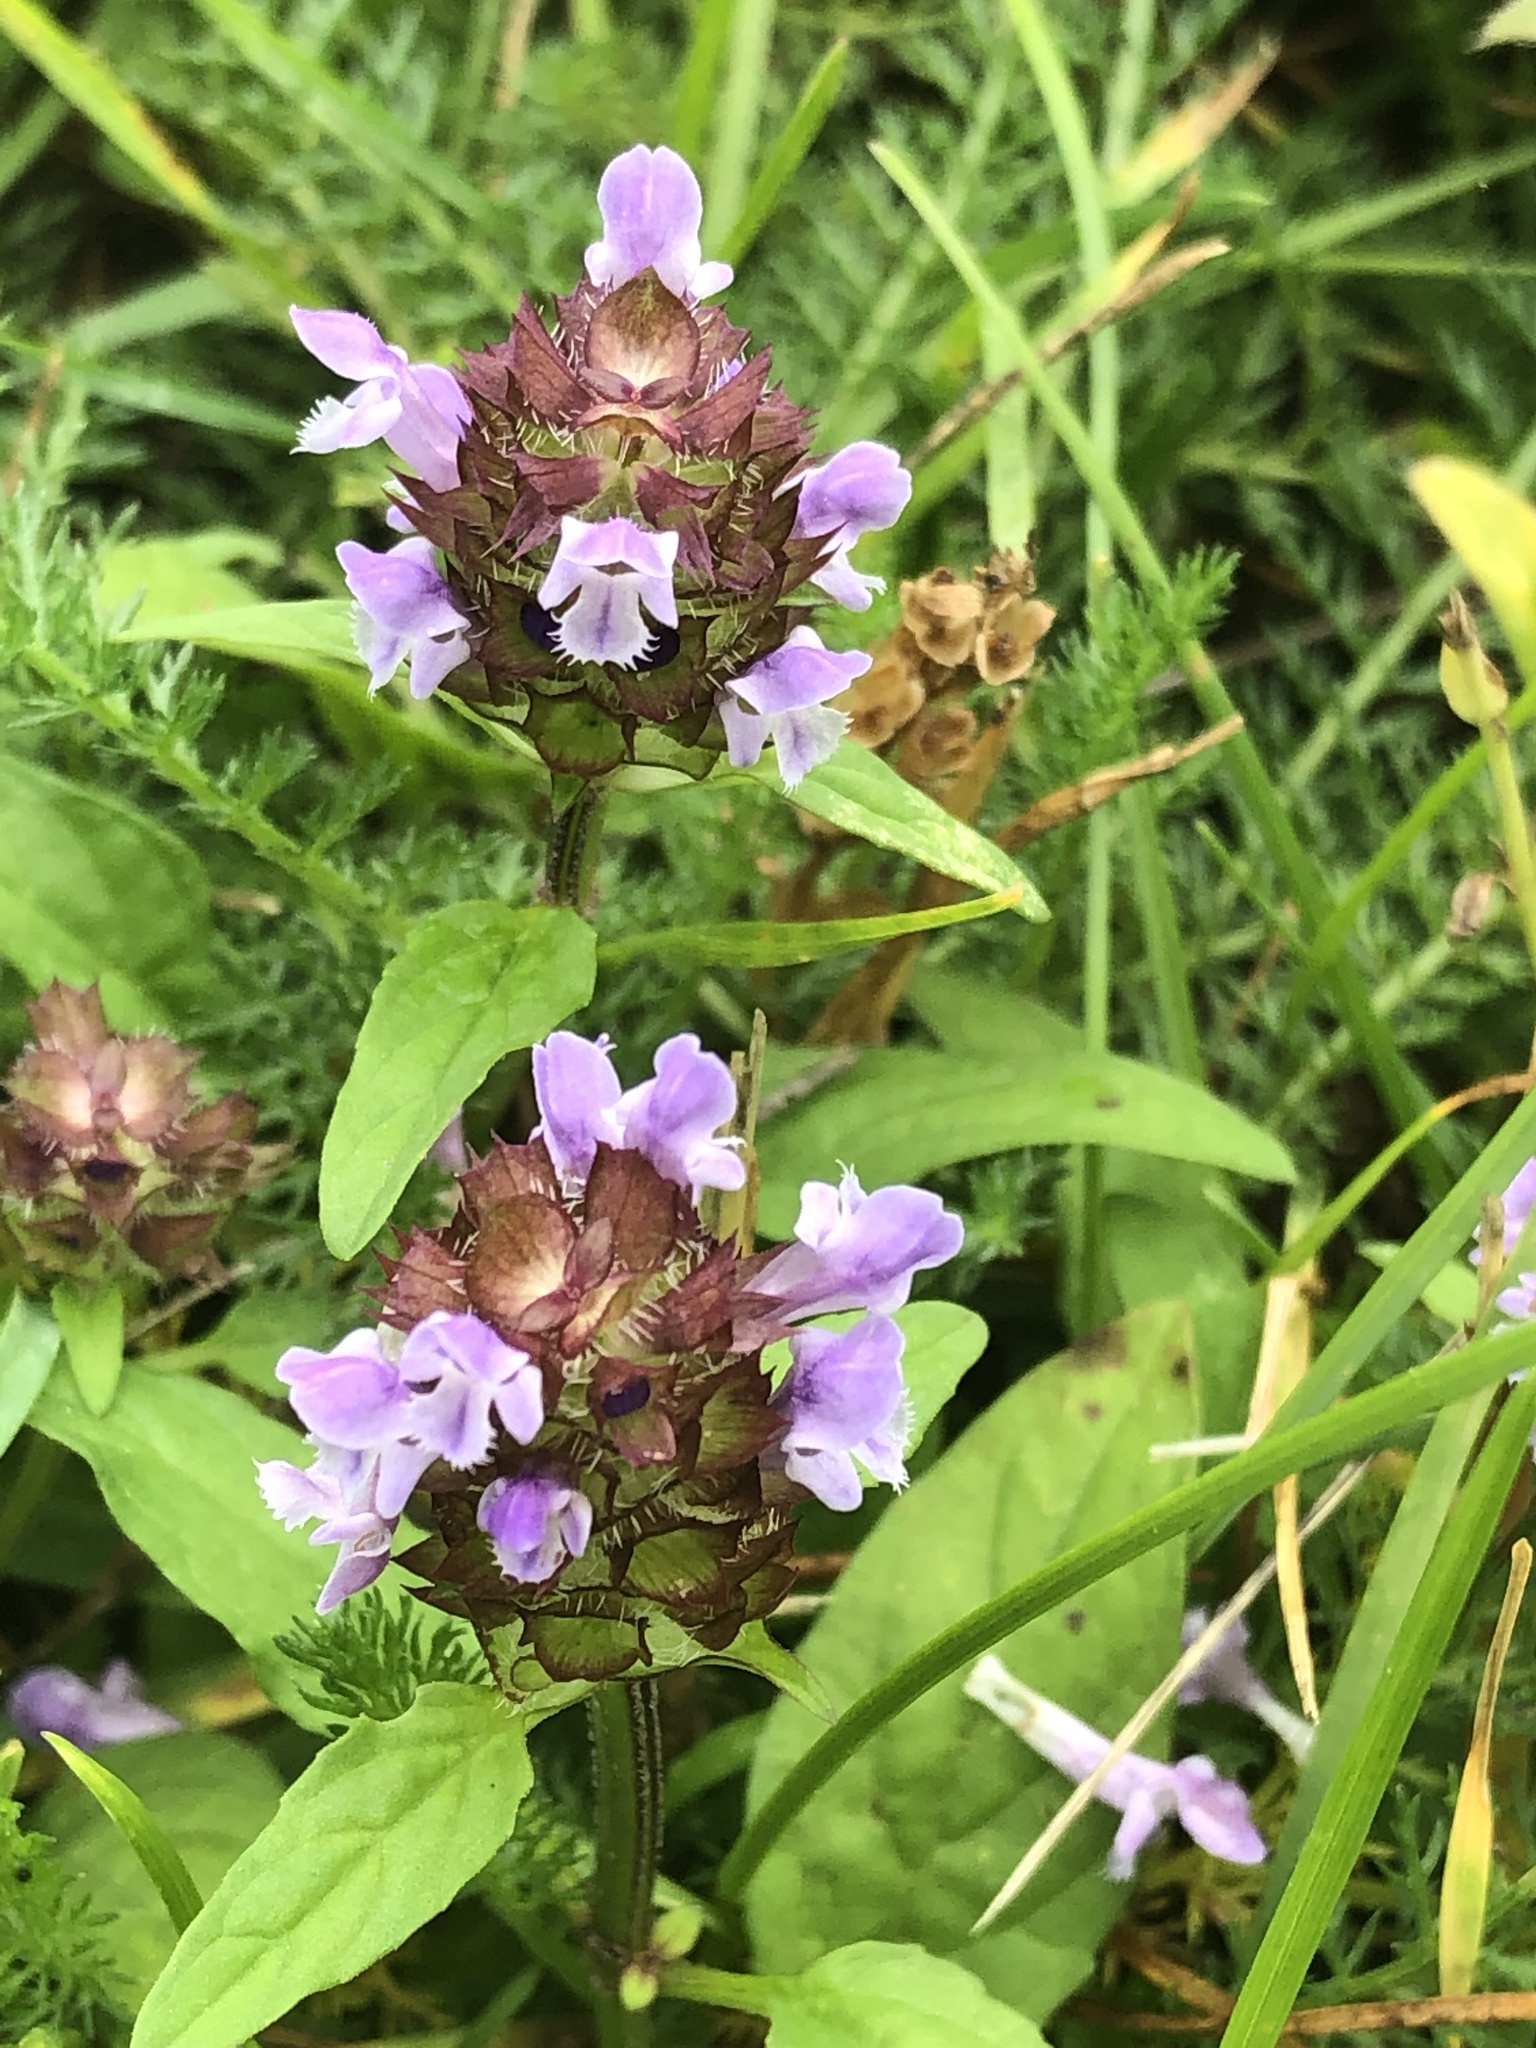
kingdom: Plantae
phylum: Tracheophyta
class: Magnoliopsida
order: Lamiales
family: Lamiaceae
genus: Prunella
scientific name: Prunella vulgaris
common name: Heal-all
